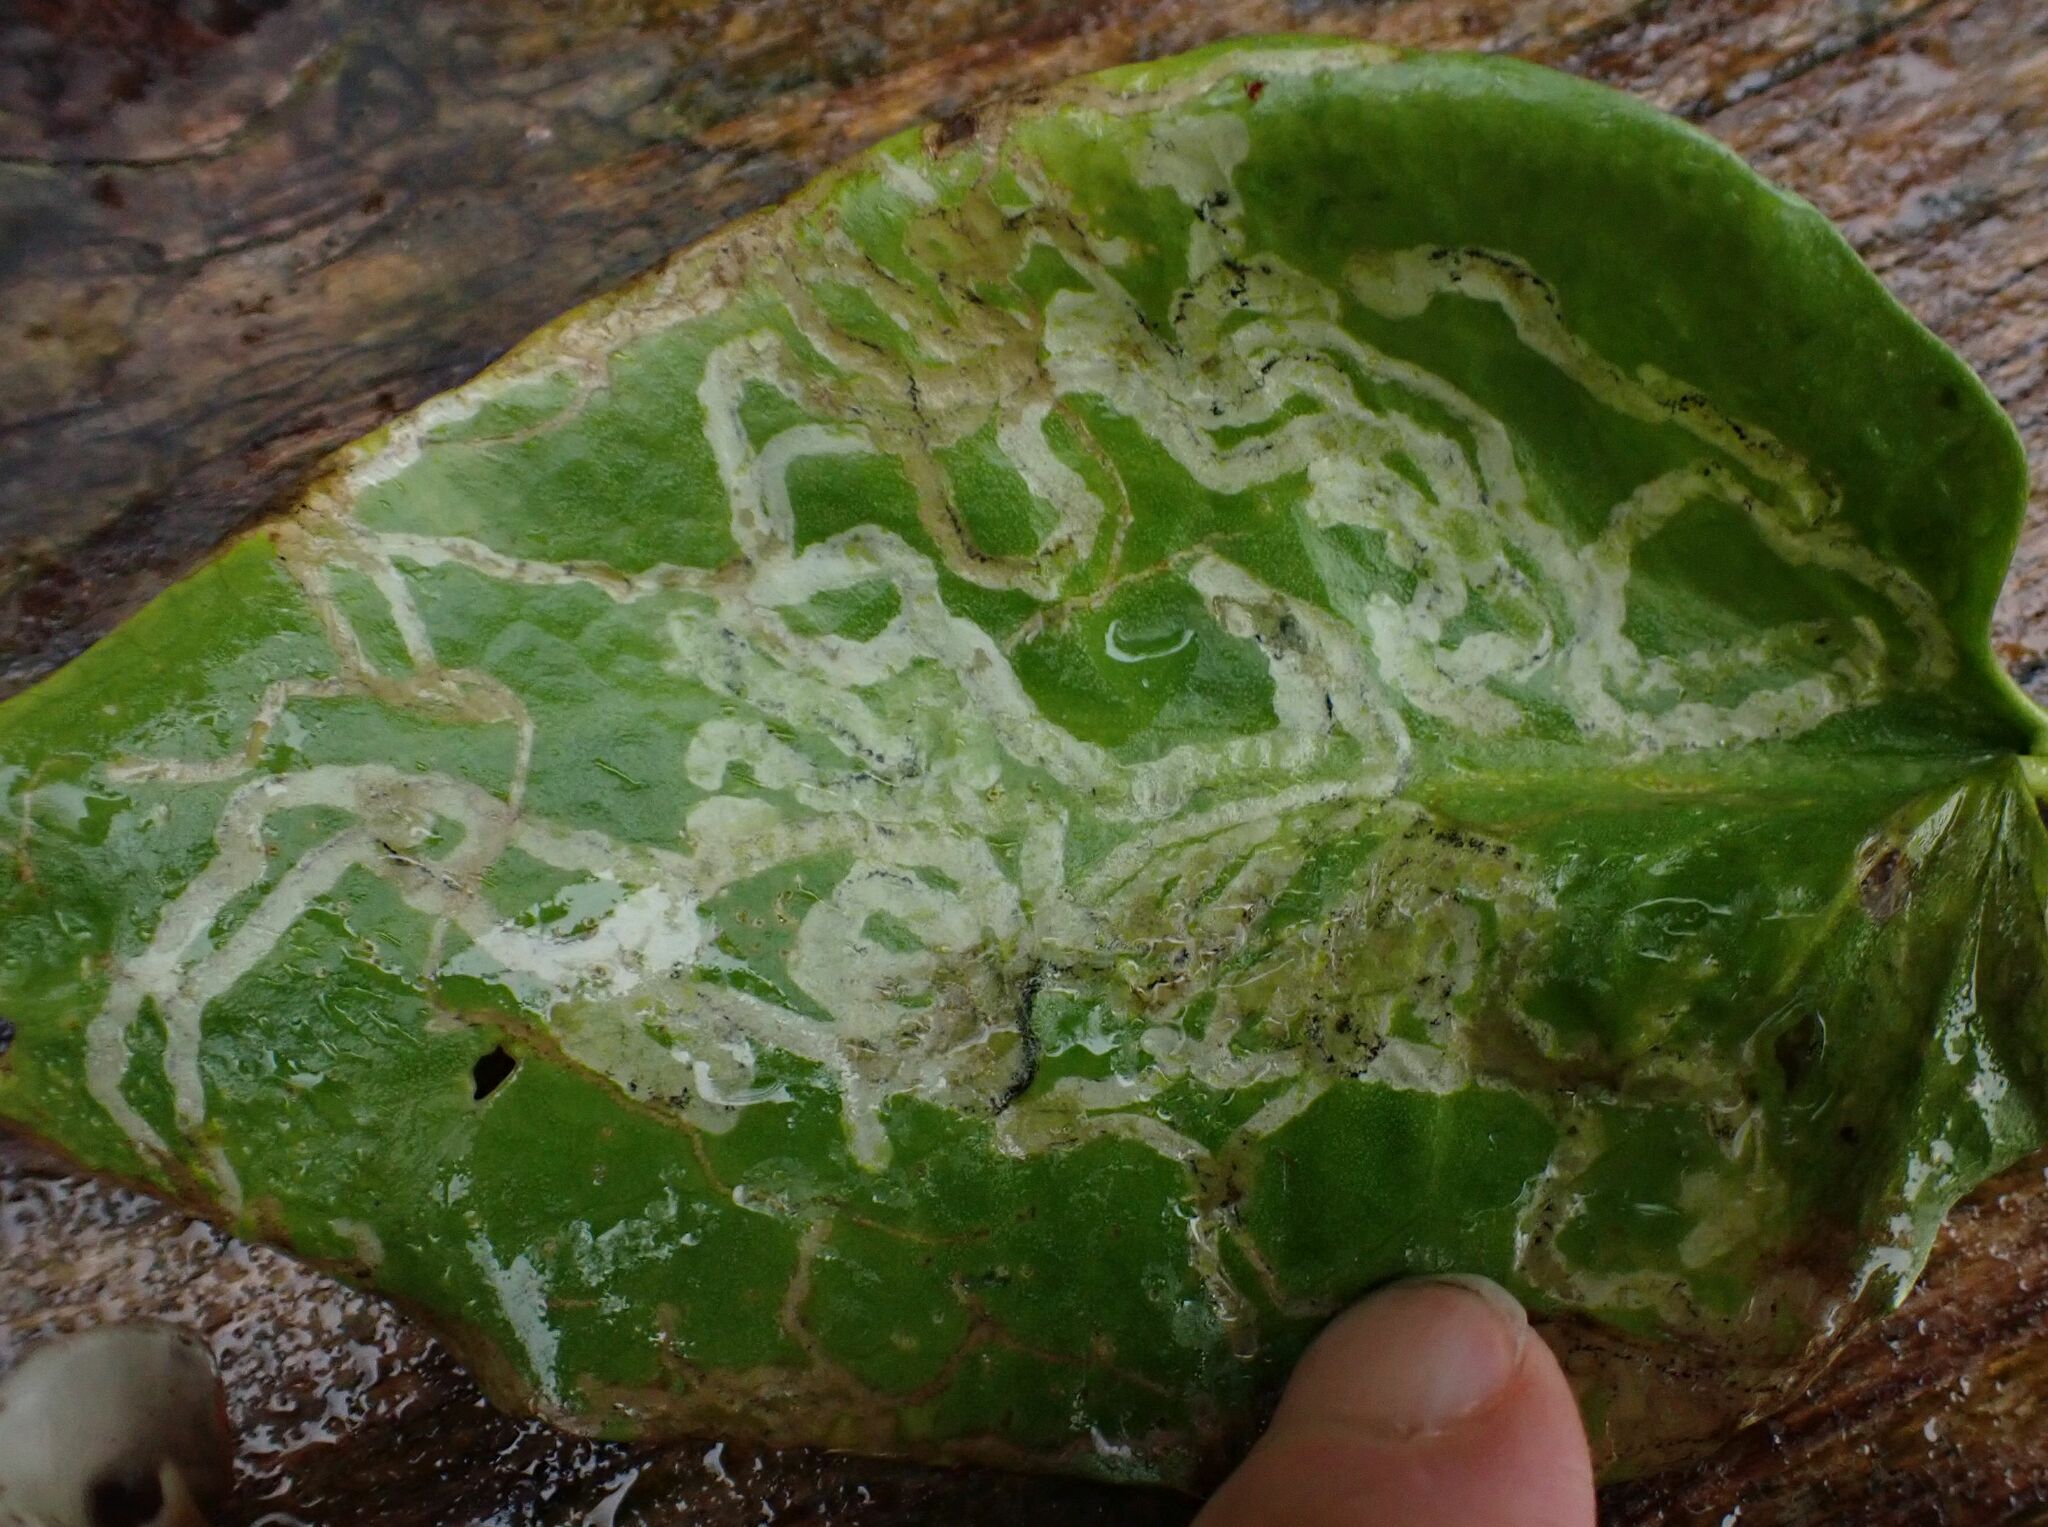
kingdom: Animalia
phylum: Arthropoda
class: Insecta
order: Diptera
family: Agromyzidae
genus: Phytomyza
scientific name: Phytomyza ranunculi
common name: Leaf-miner fly
